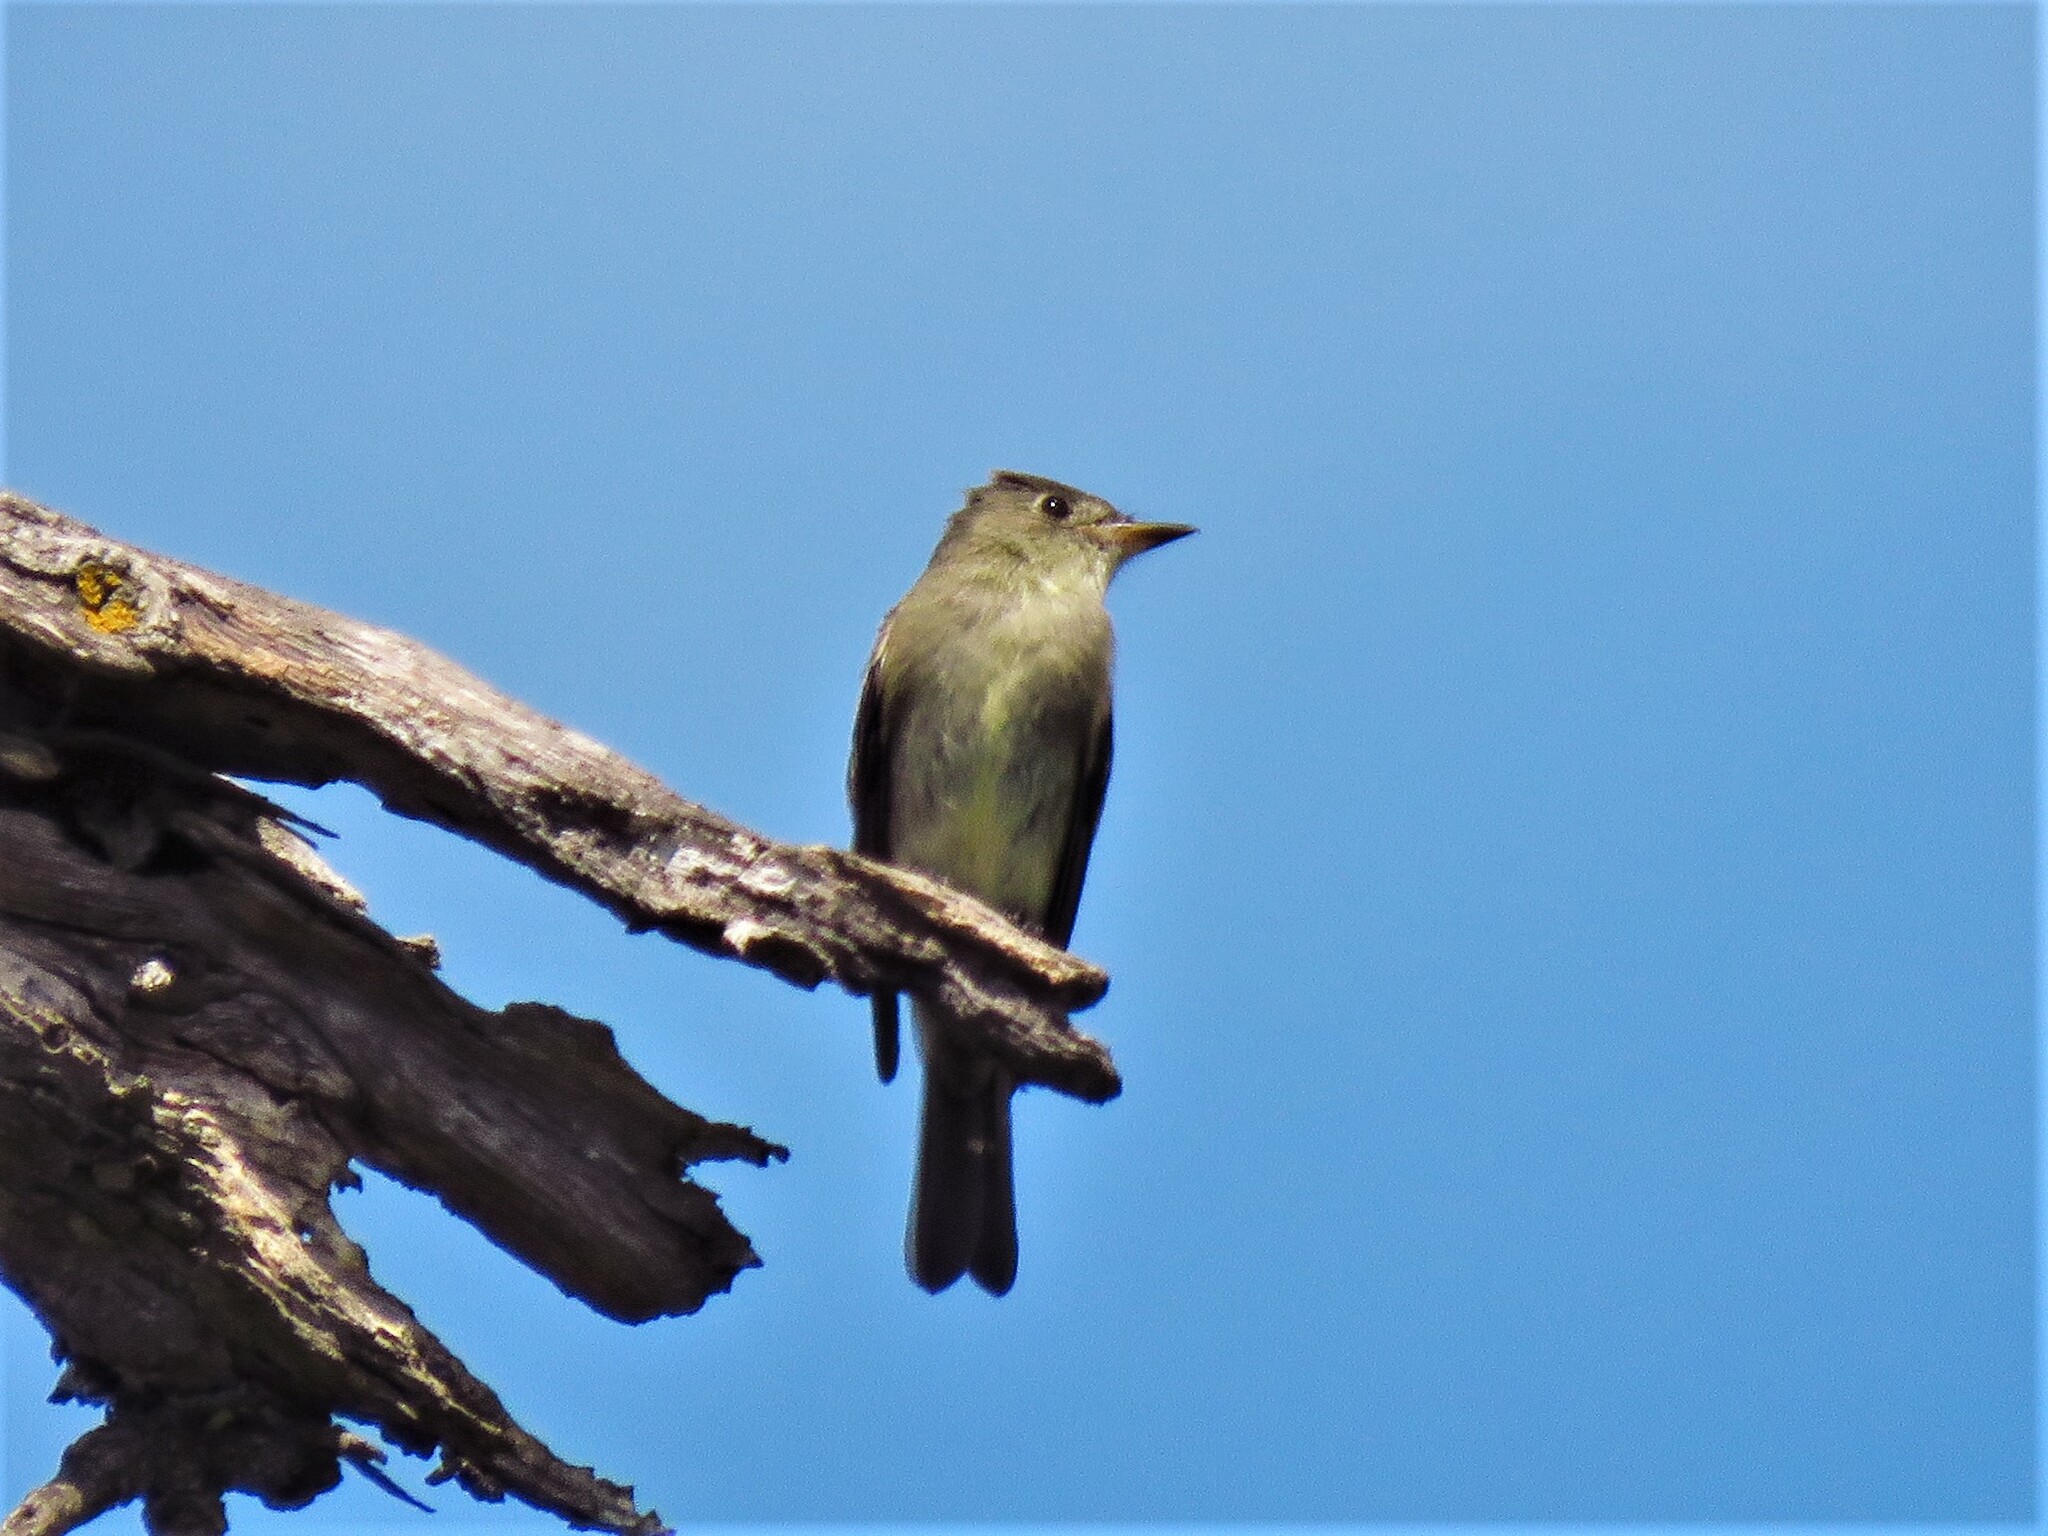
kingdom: Animalia
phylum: Chordata
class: Aves
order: Passeriformes
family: Tyrannidae
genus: Contopus
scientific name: Contopus virens
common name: Eastern wood-pewee
